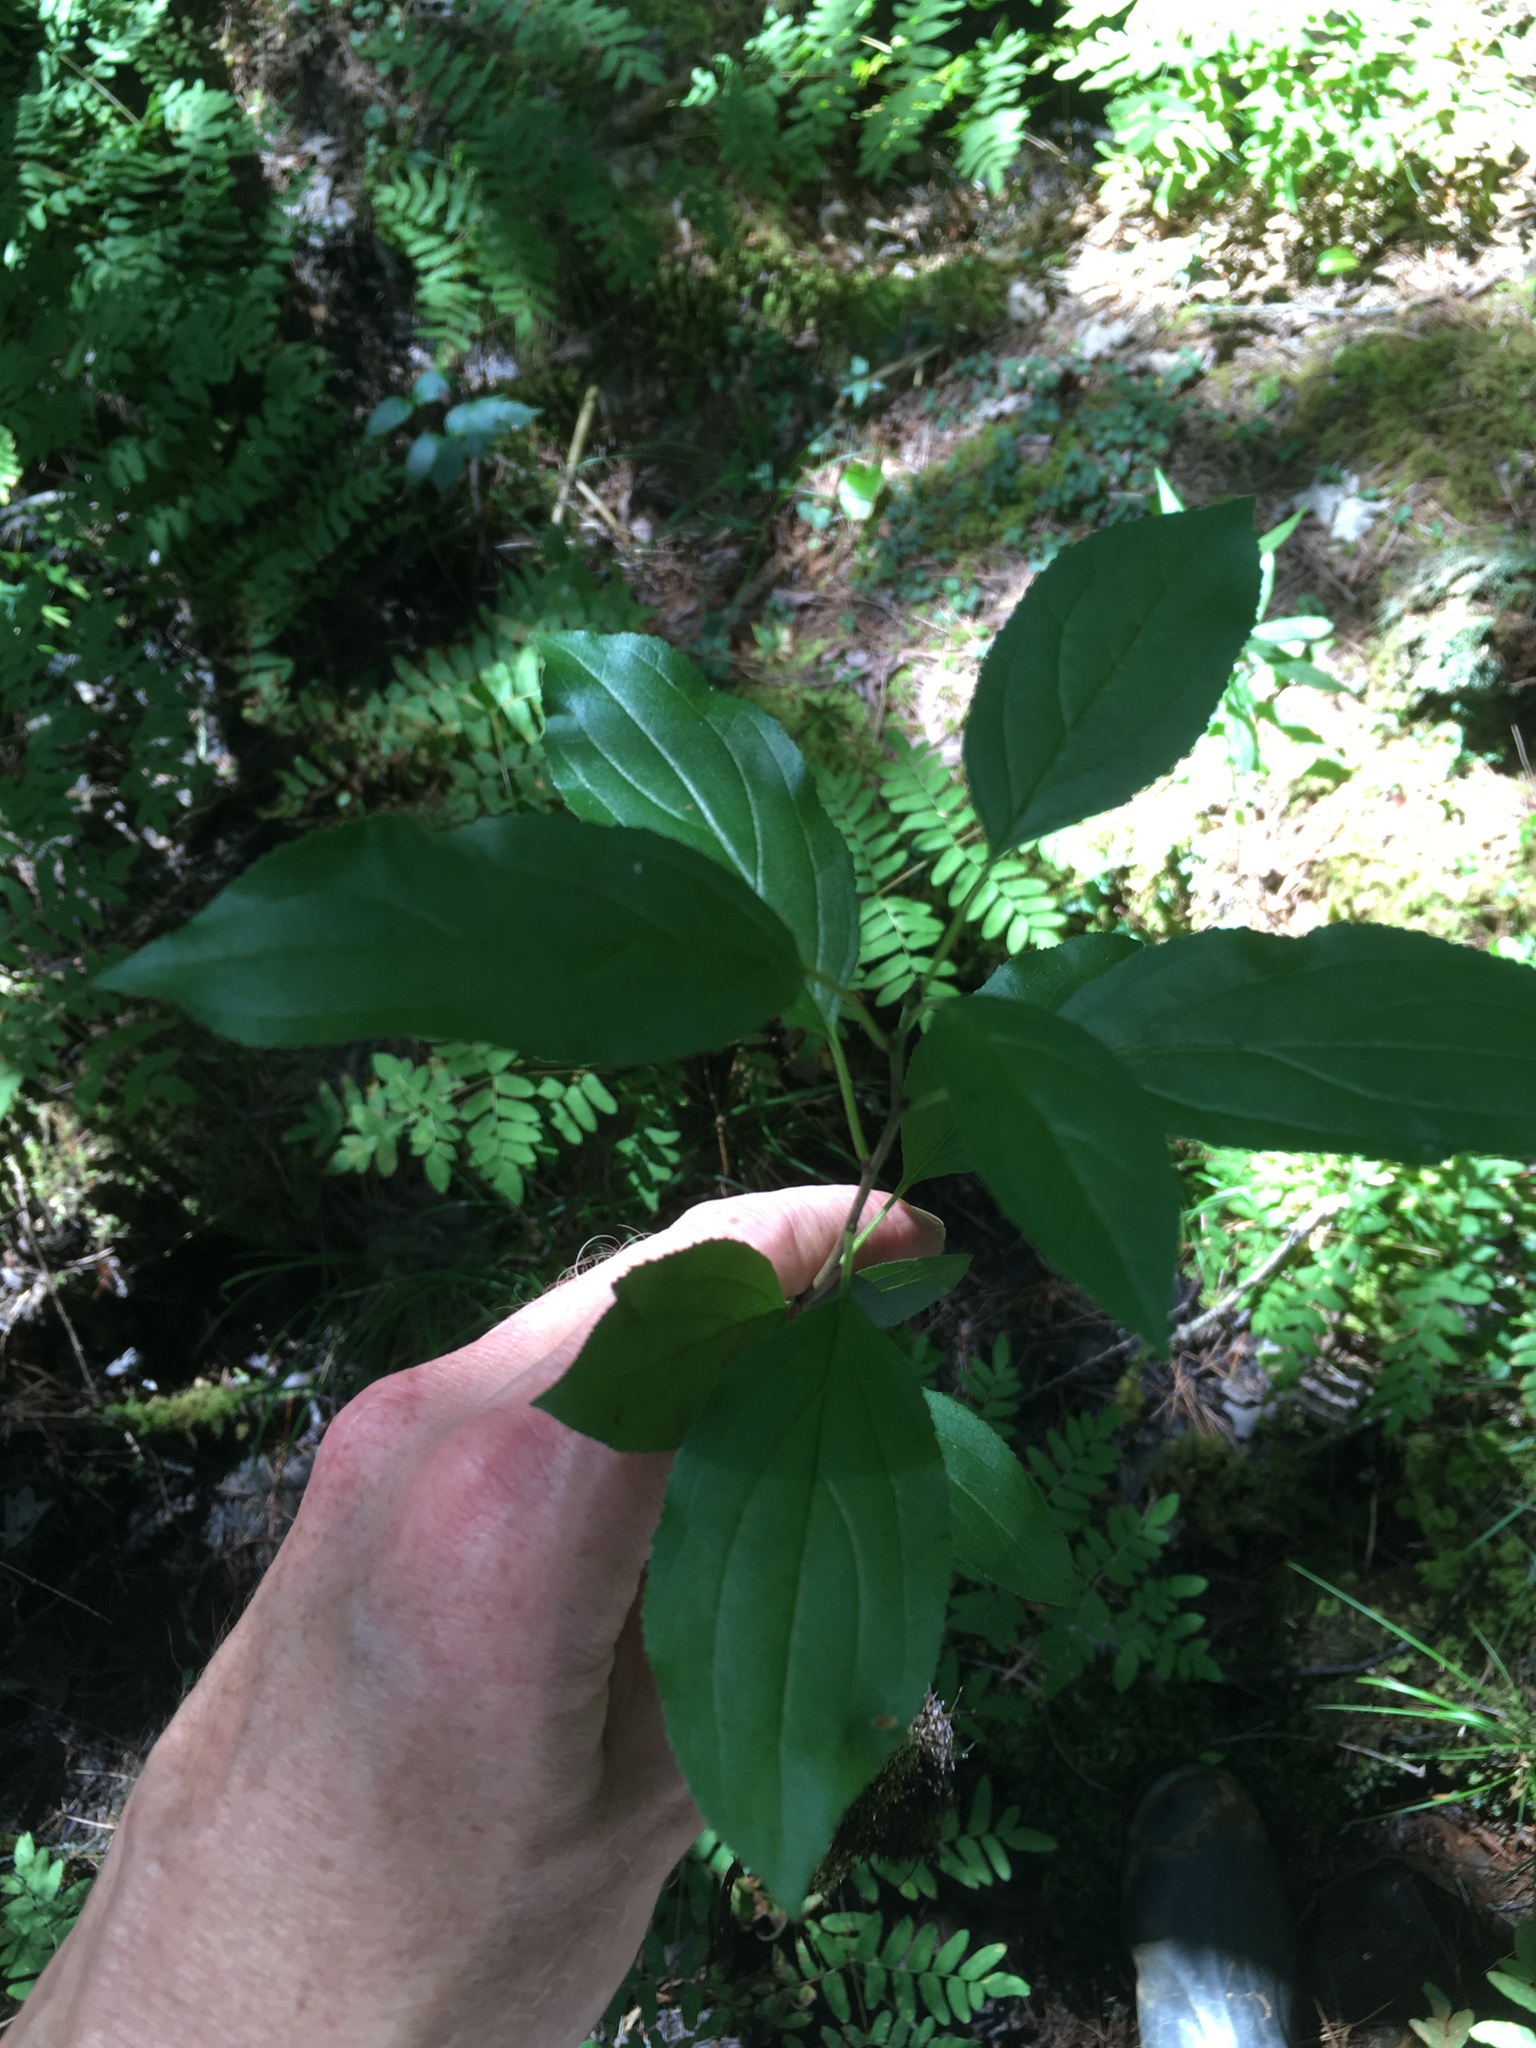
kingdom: Plantae
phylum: Tracheophyta
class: Magnoliopsida
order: Rosales
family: Rhamnaceae
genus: Rhamnus
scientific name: Rhamnus cathartica
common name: Common buckthorn
